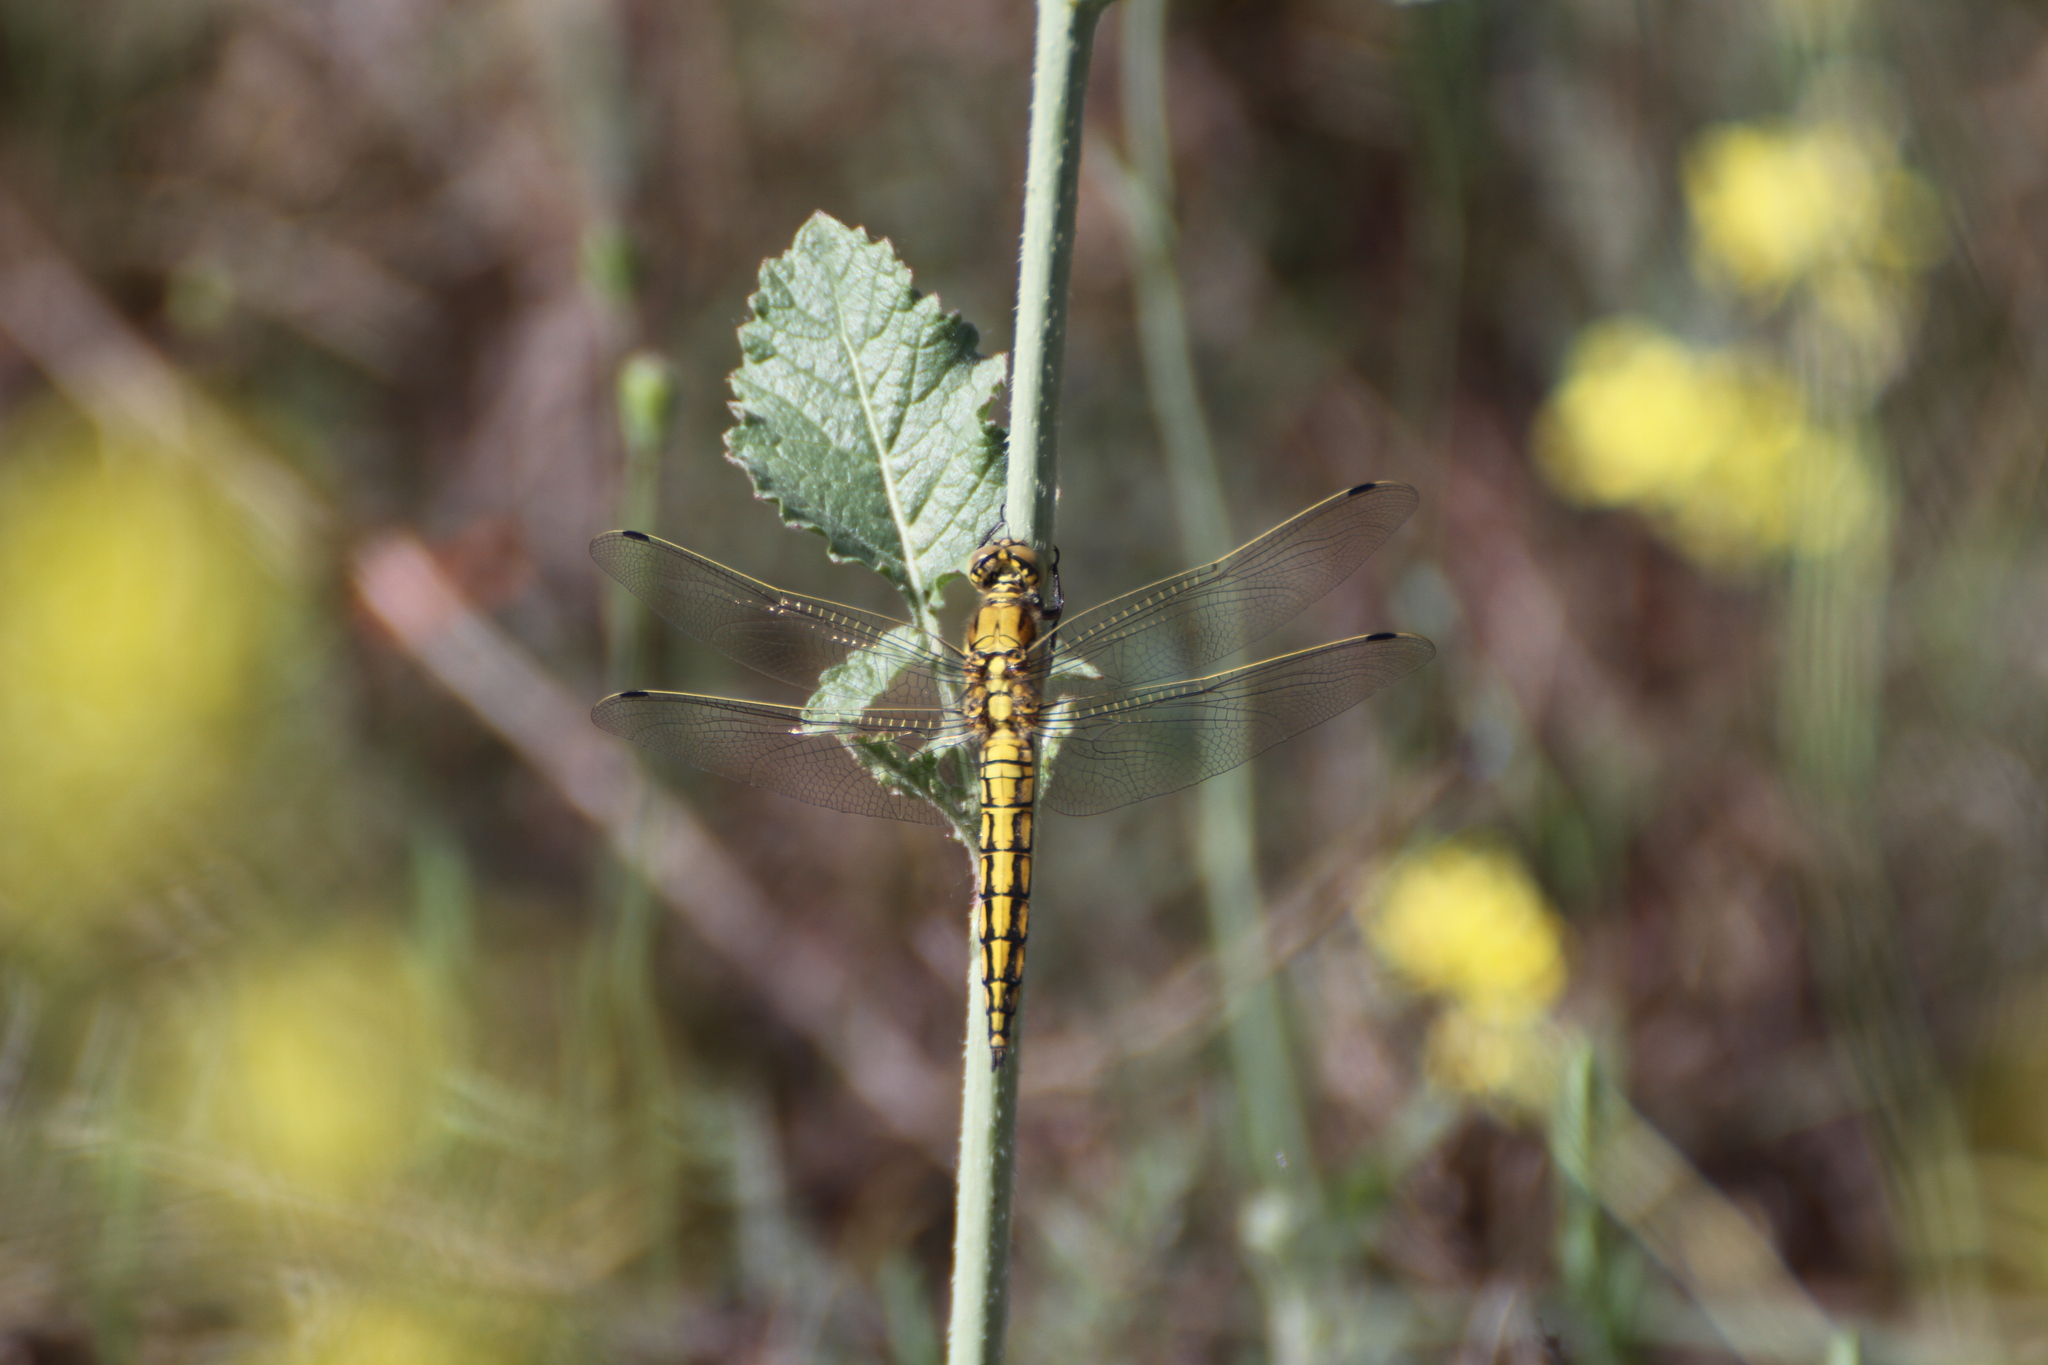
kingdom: Animalia
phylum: Arthropoda
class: Insecta
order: Odonata
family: Libellulidae
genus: Orthetrum
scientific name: Orthetrum cancellatum
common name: Black-tailed skimmer
